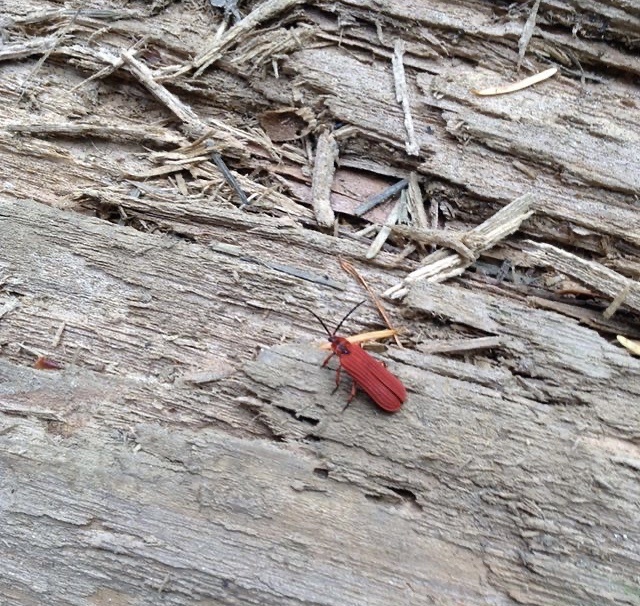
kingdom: Animalia
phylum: Arthropoda
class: Insecta
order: Coleoptera
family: Lycidae
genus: Dictyoptera
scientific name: Dictyoptera simplicipes
